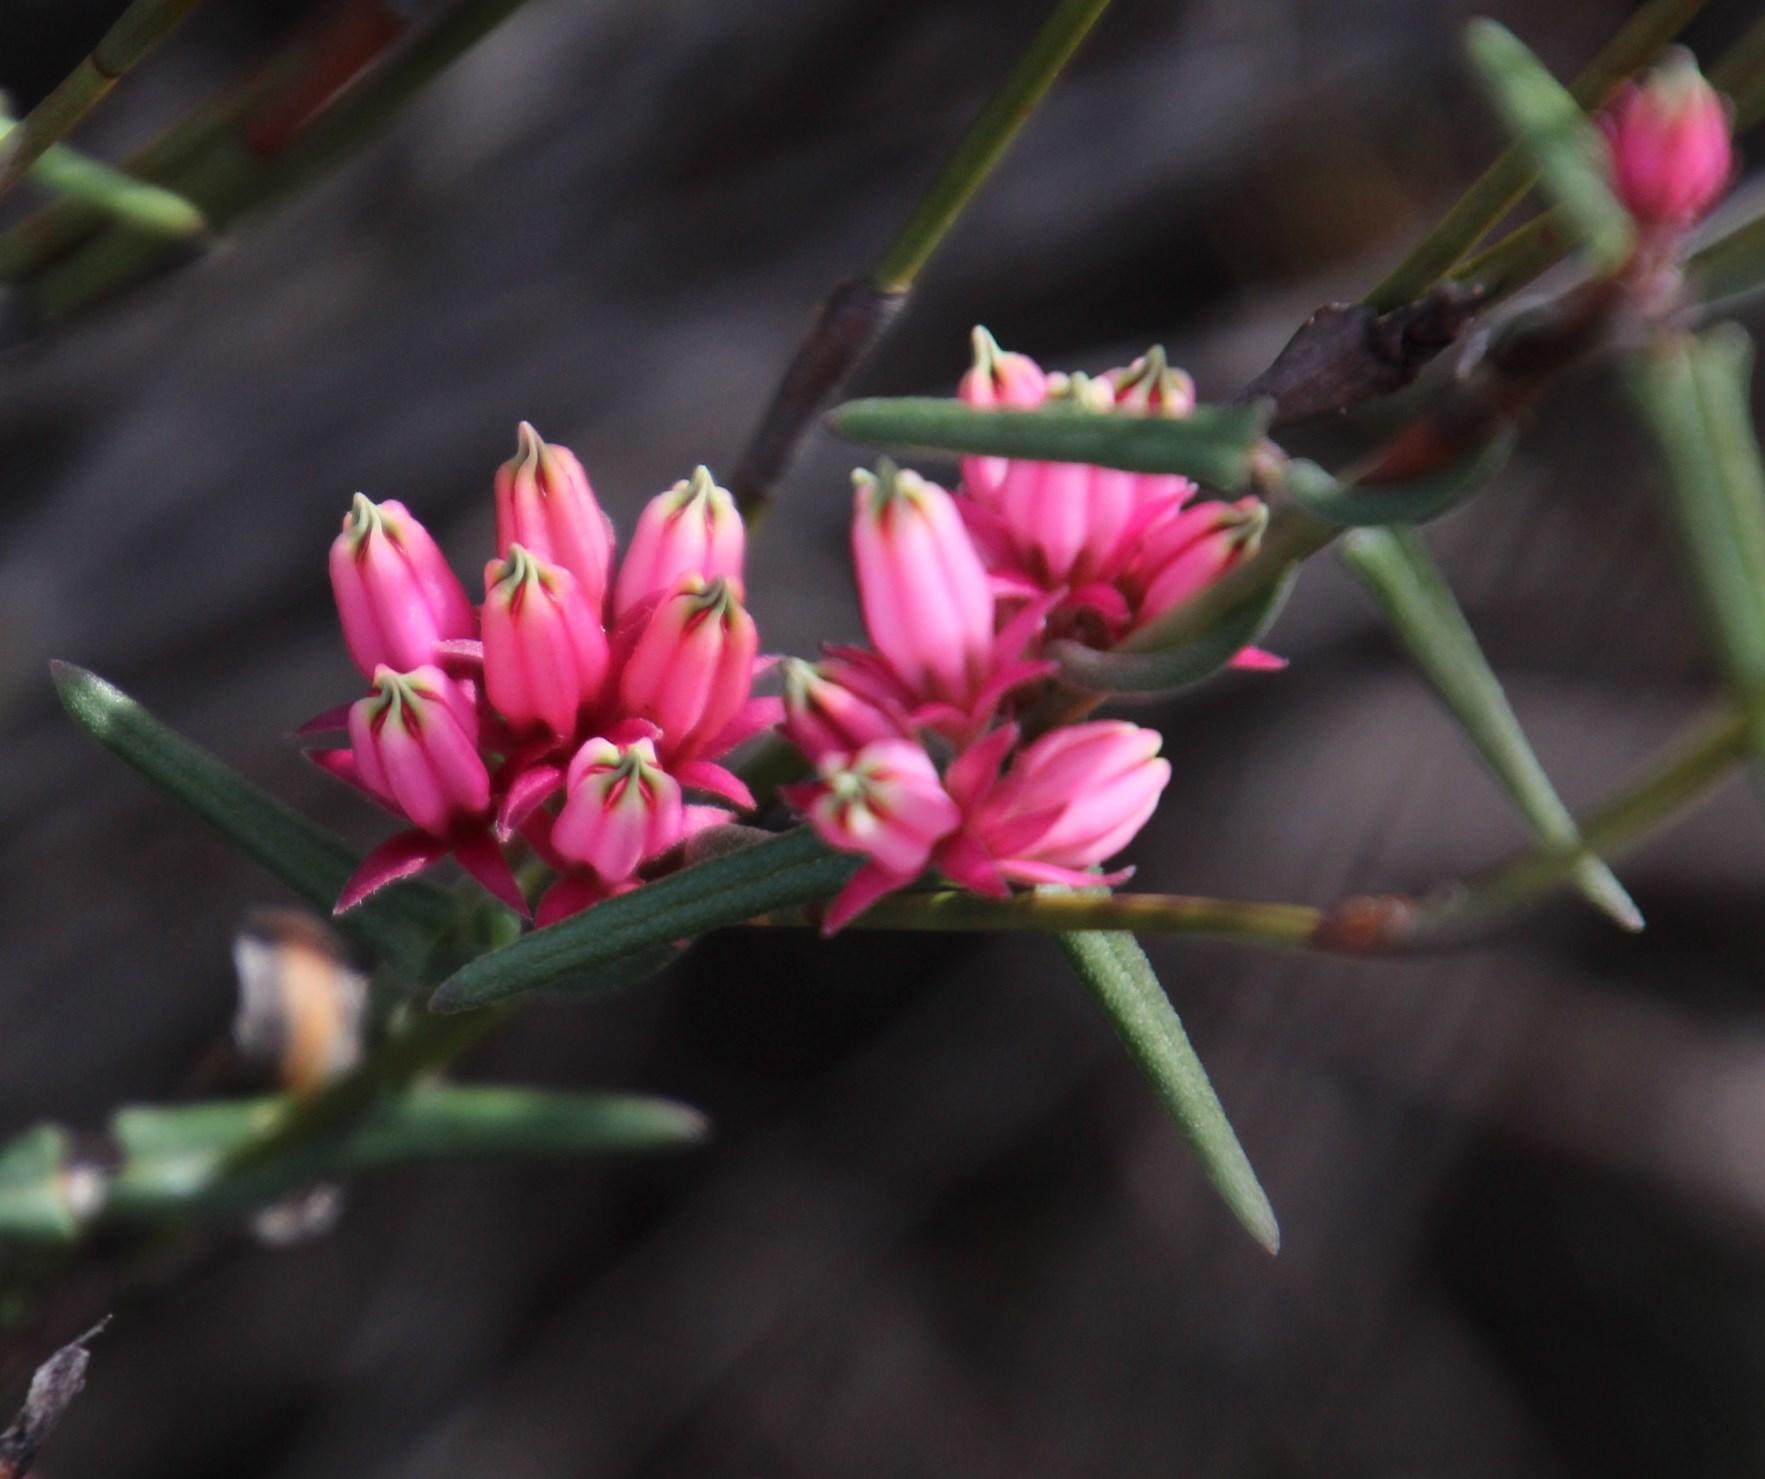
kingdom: Plantae
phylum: Tracheophyta
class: Magnoliopsida
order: Gentianales
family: Apocynaceae
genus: Microloma
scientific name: Microloma sagittatum
